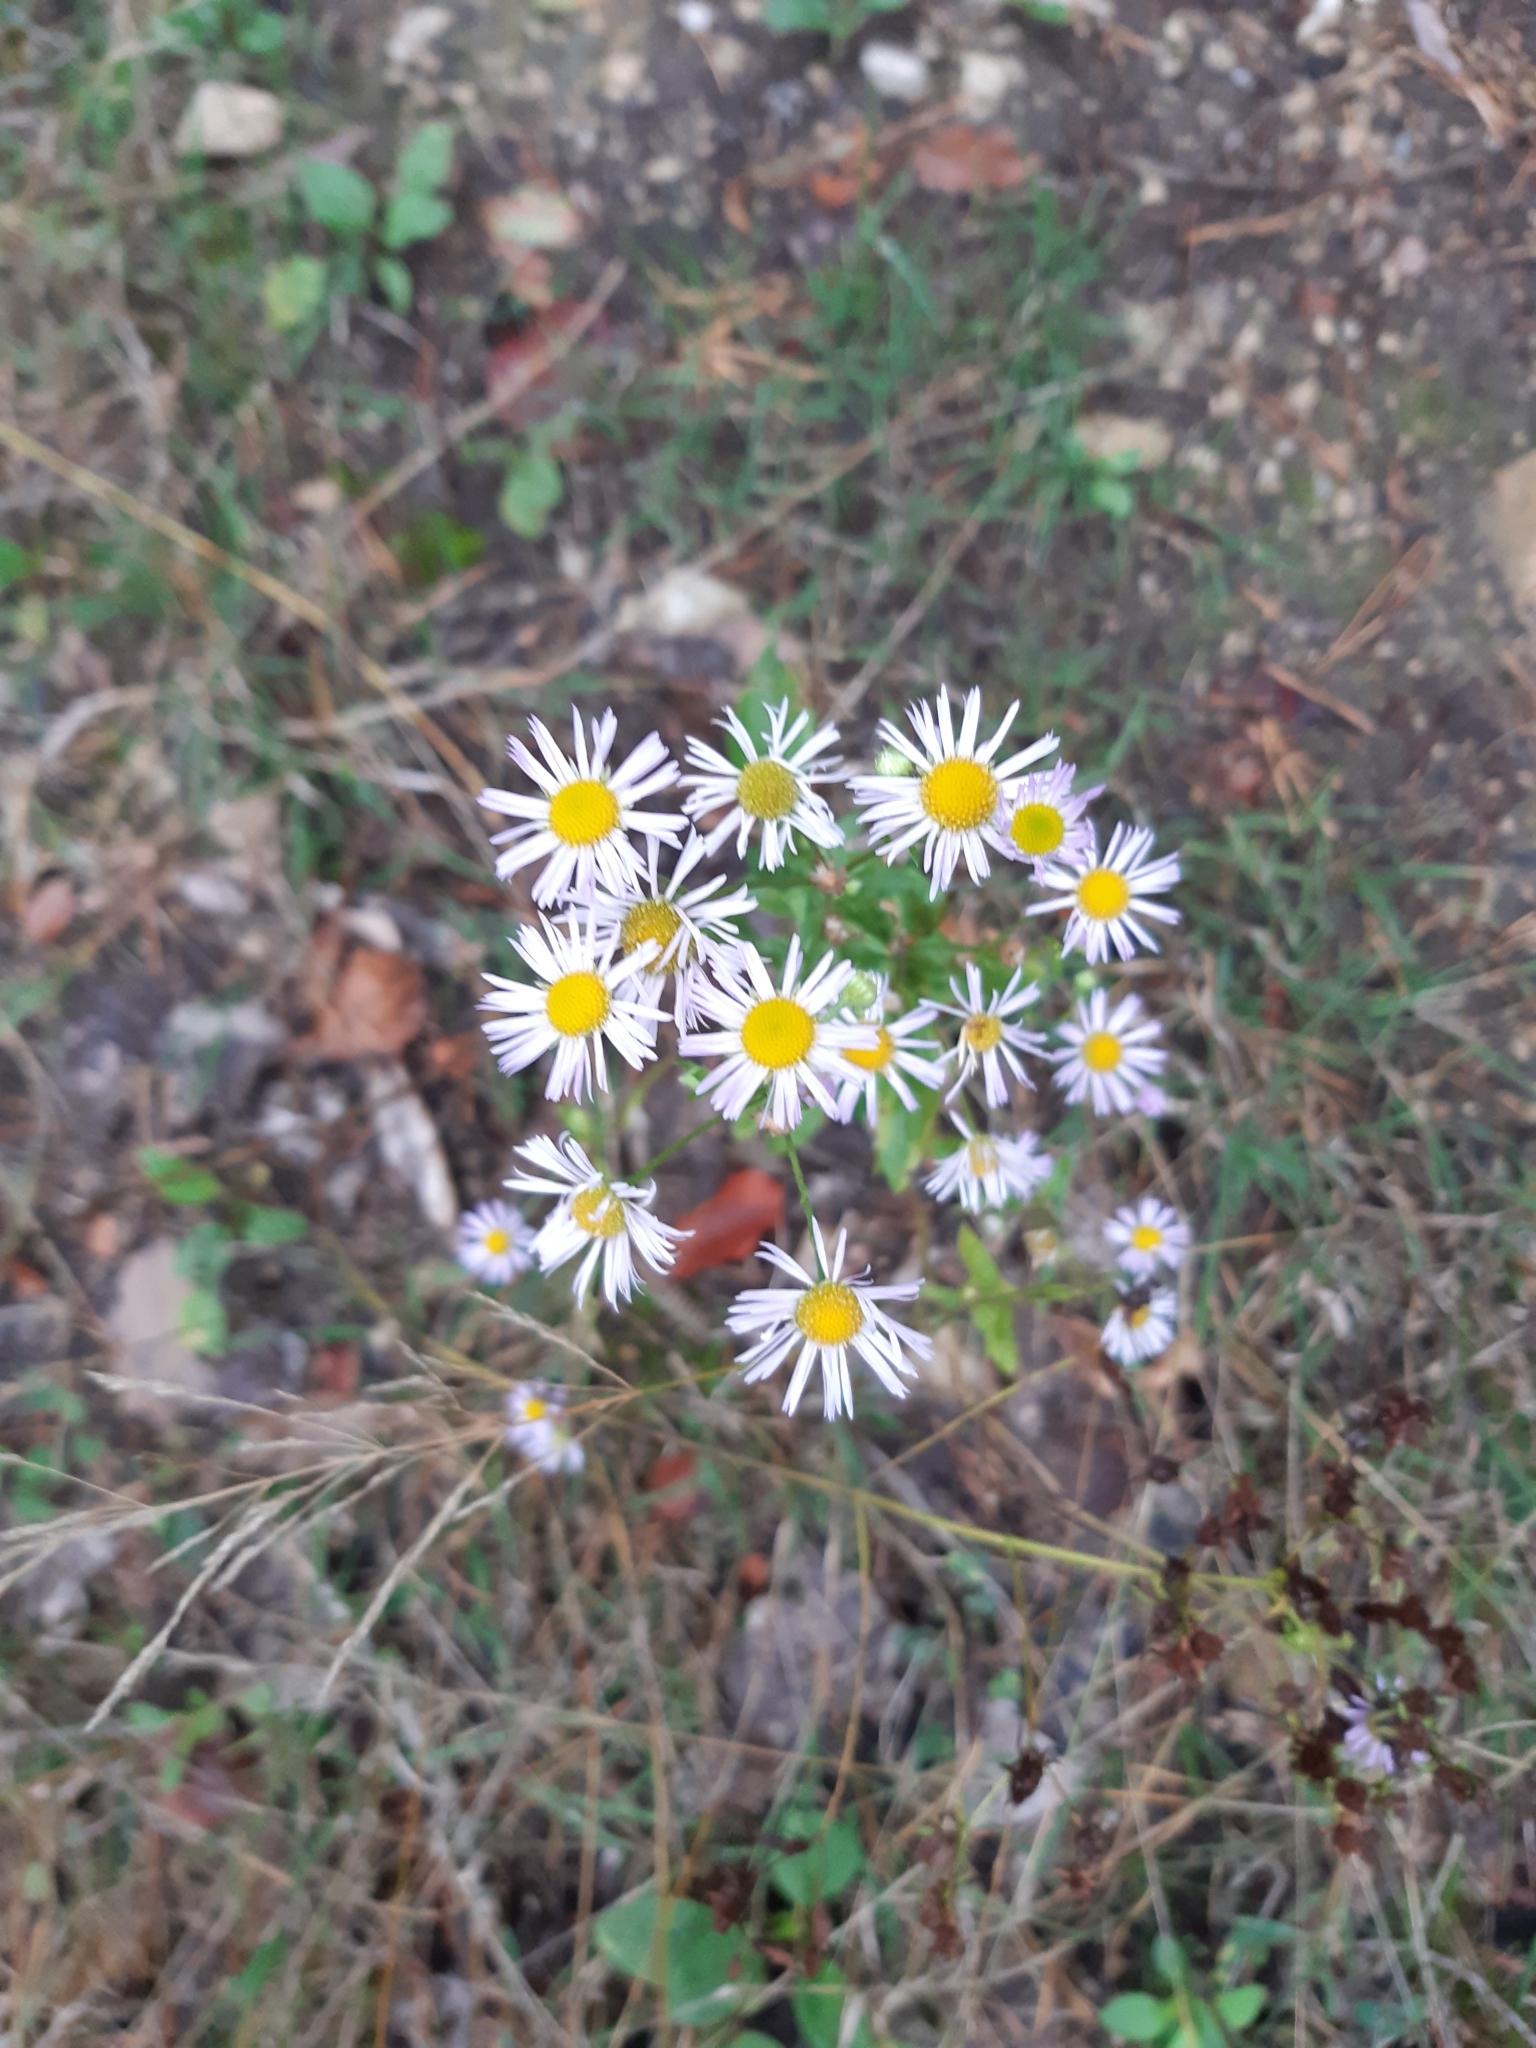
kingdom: Plantae
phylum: Tracheophyta
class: Magnoliopsida
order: Asterales
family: Asteraceae
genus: Erigeron
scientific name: Erigeron annuus
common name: Tall fleabane
